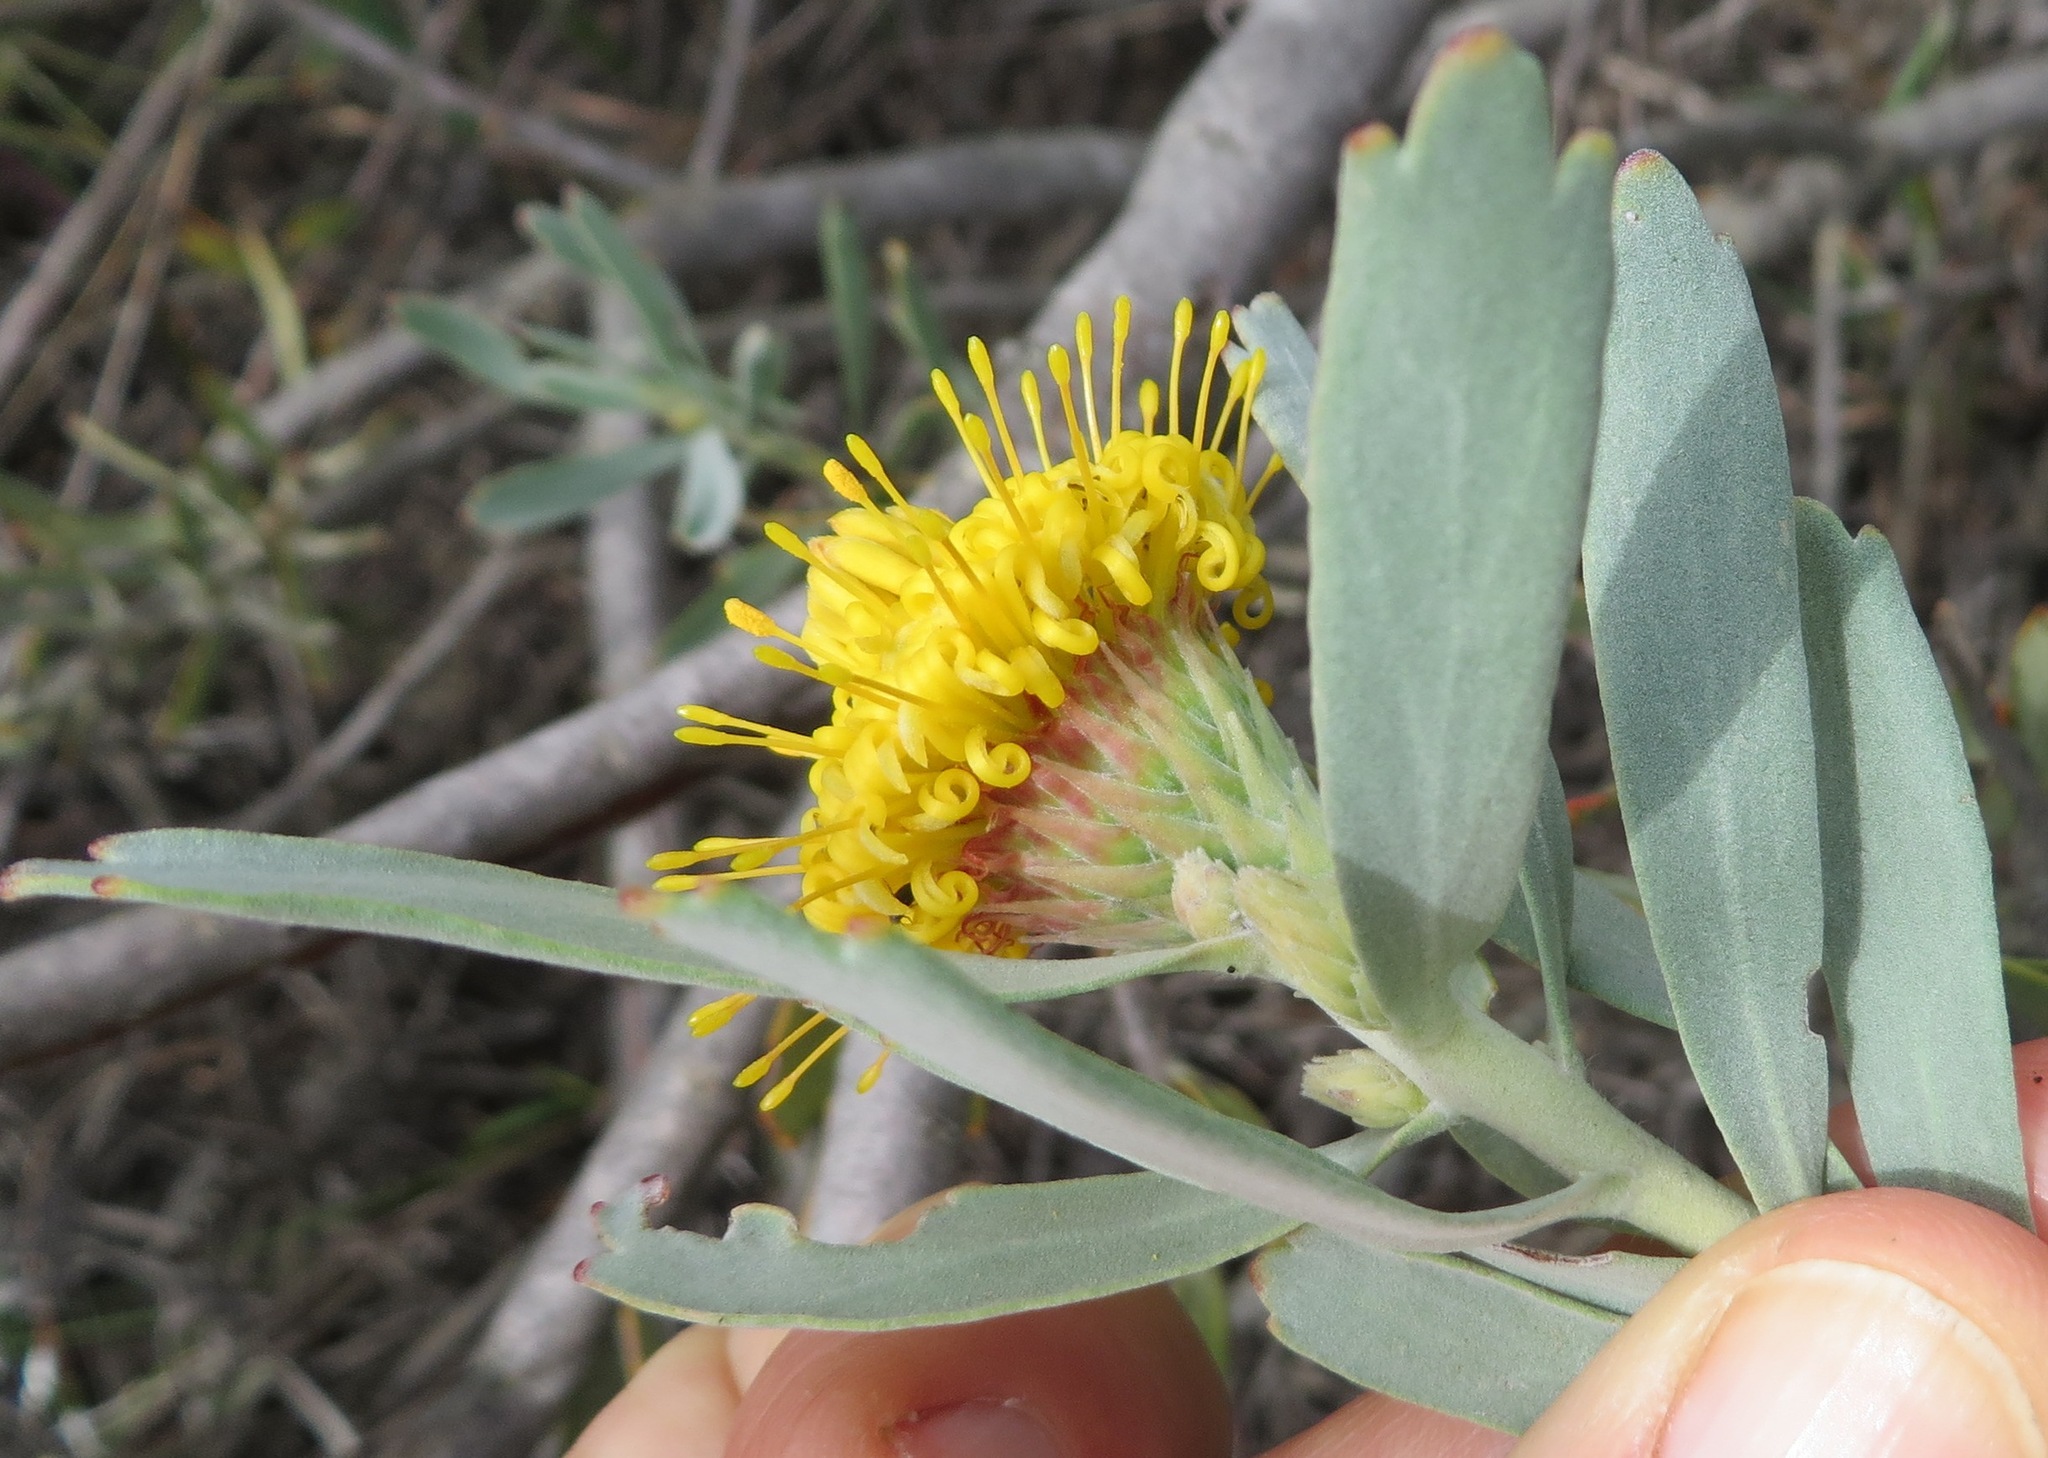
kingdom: Plantae
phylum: Tracheophyta
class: Magnoliopsida
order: Proteales
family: Proteaceae
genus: Leucospermum
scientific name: Leucospermum rodolentum
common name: Pincushion
